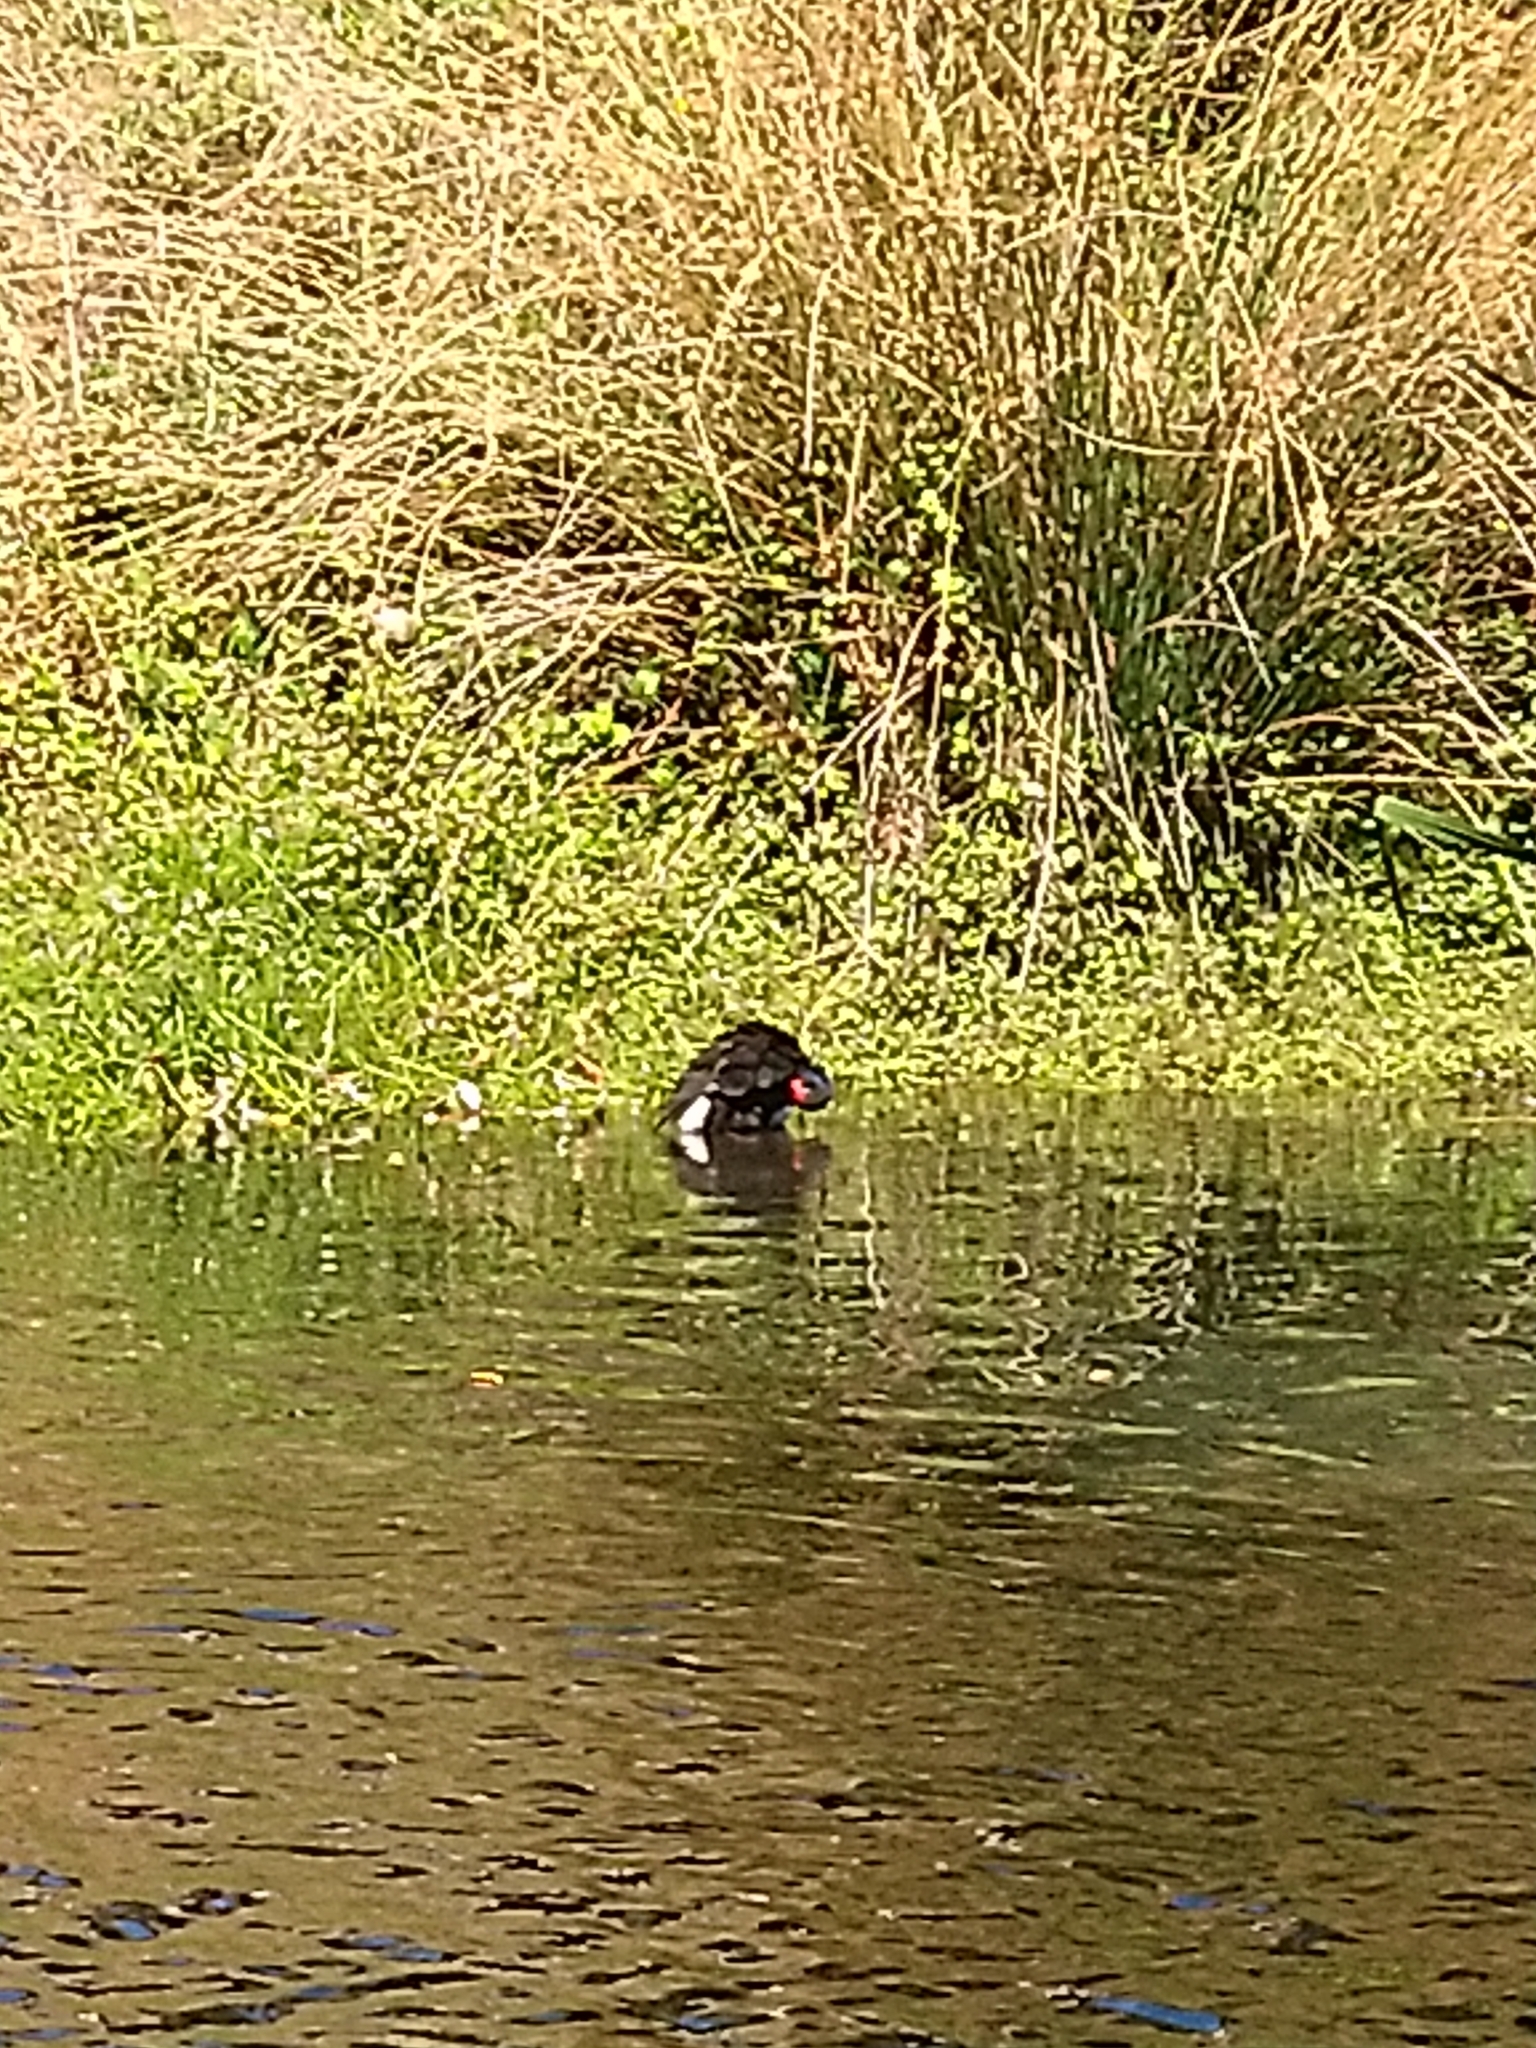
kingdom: Animalia
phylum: Chordata
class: Aves
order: Gruiformes
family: Rallidae
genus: Porphyrio
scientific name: Porphyrio melanotus
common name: Australasian swamphen
